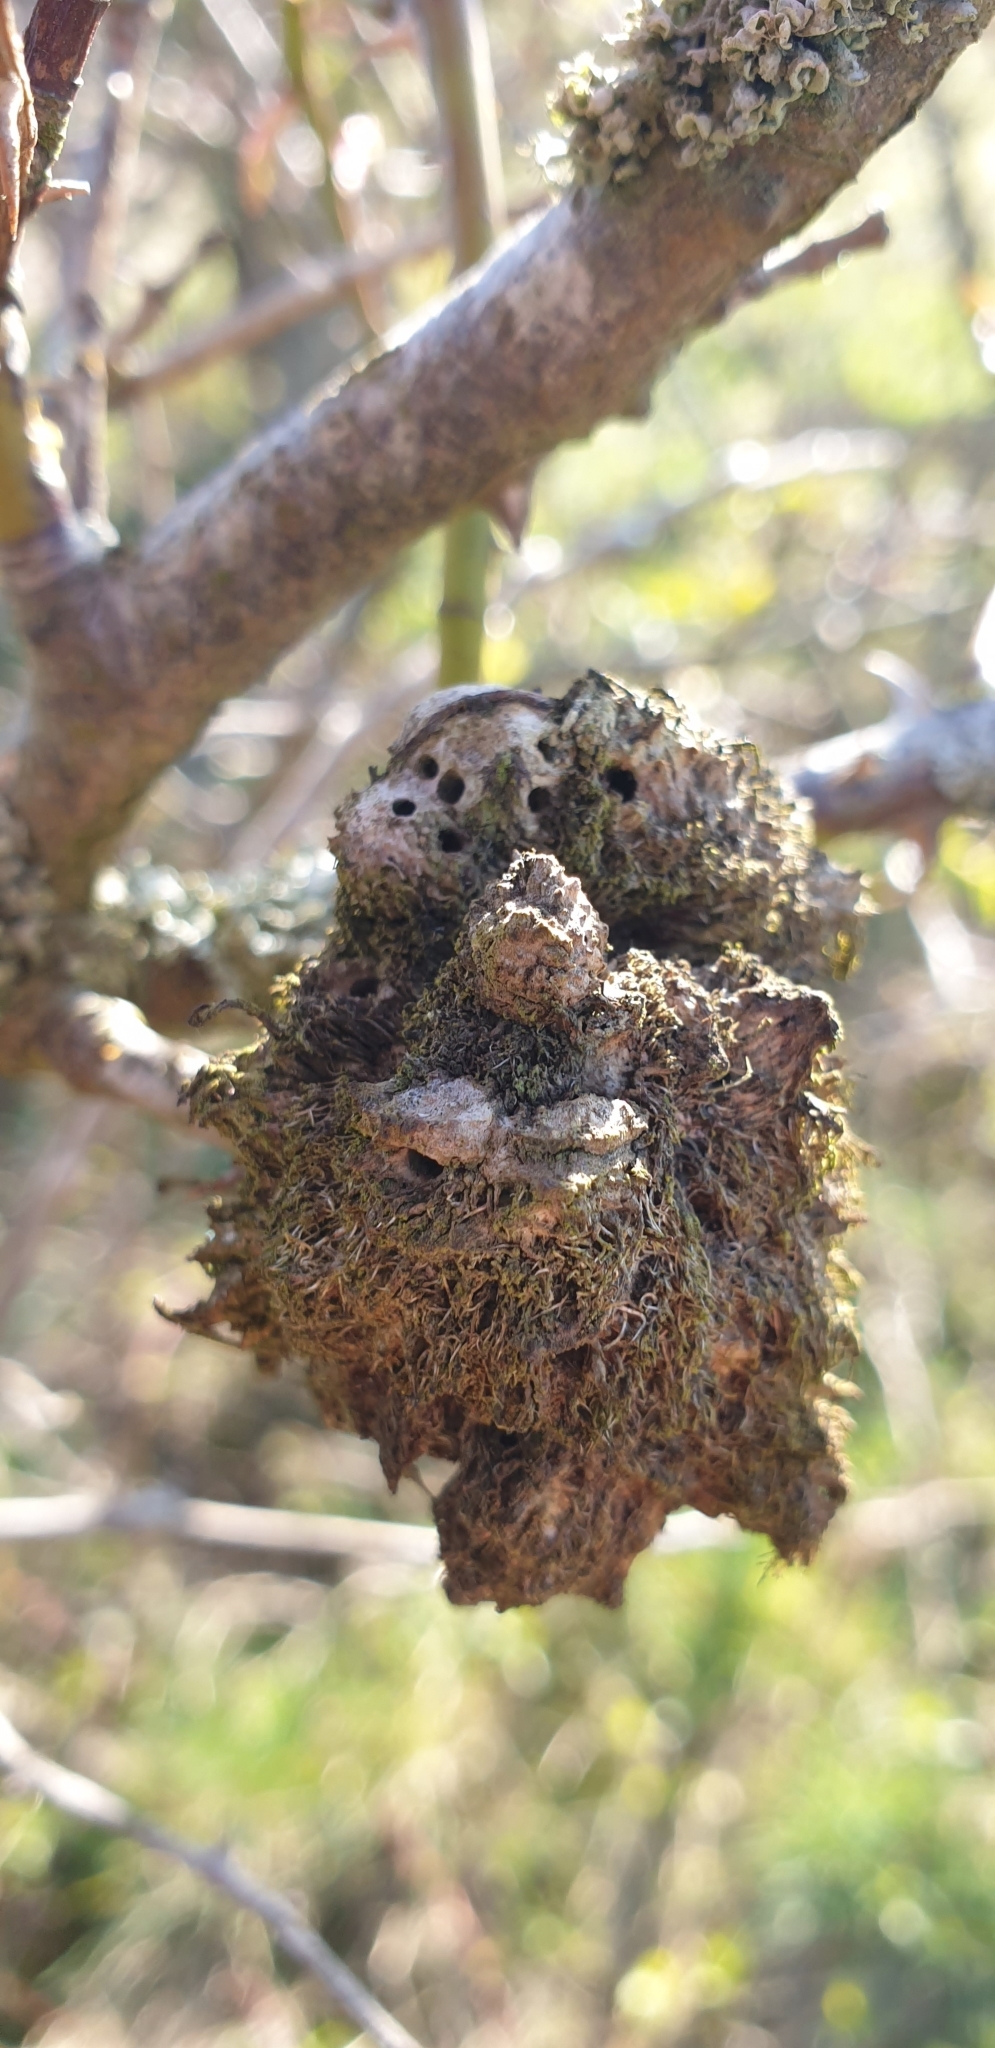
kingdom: Animalia
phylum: Arthropoda
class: Insecta
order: Hymenoptera
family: Cynipidae
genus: Diplolepis
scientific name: Diplolepis rosae
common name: Bedeguar gall
